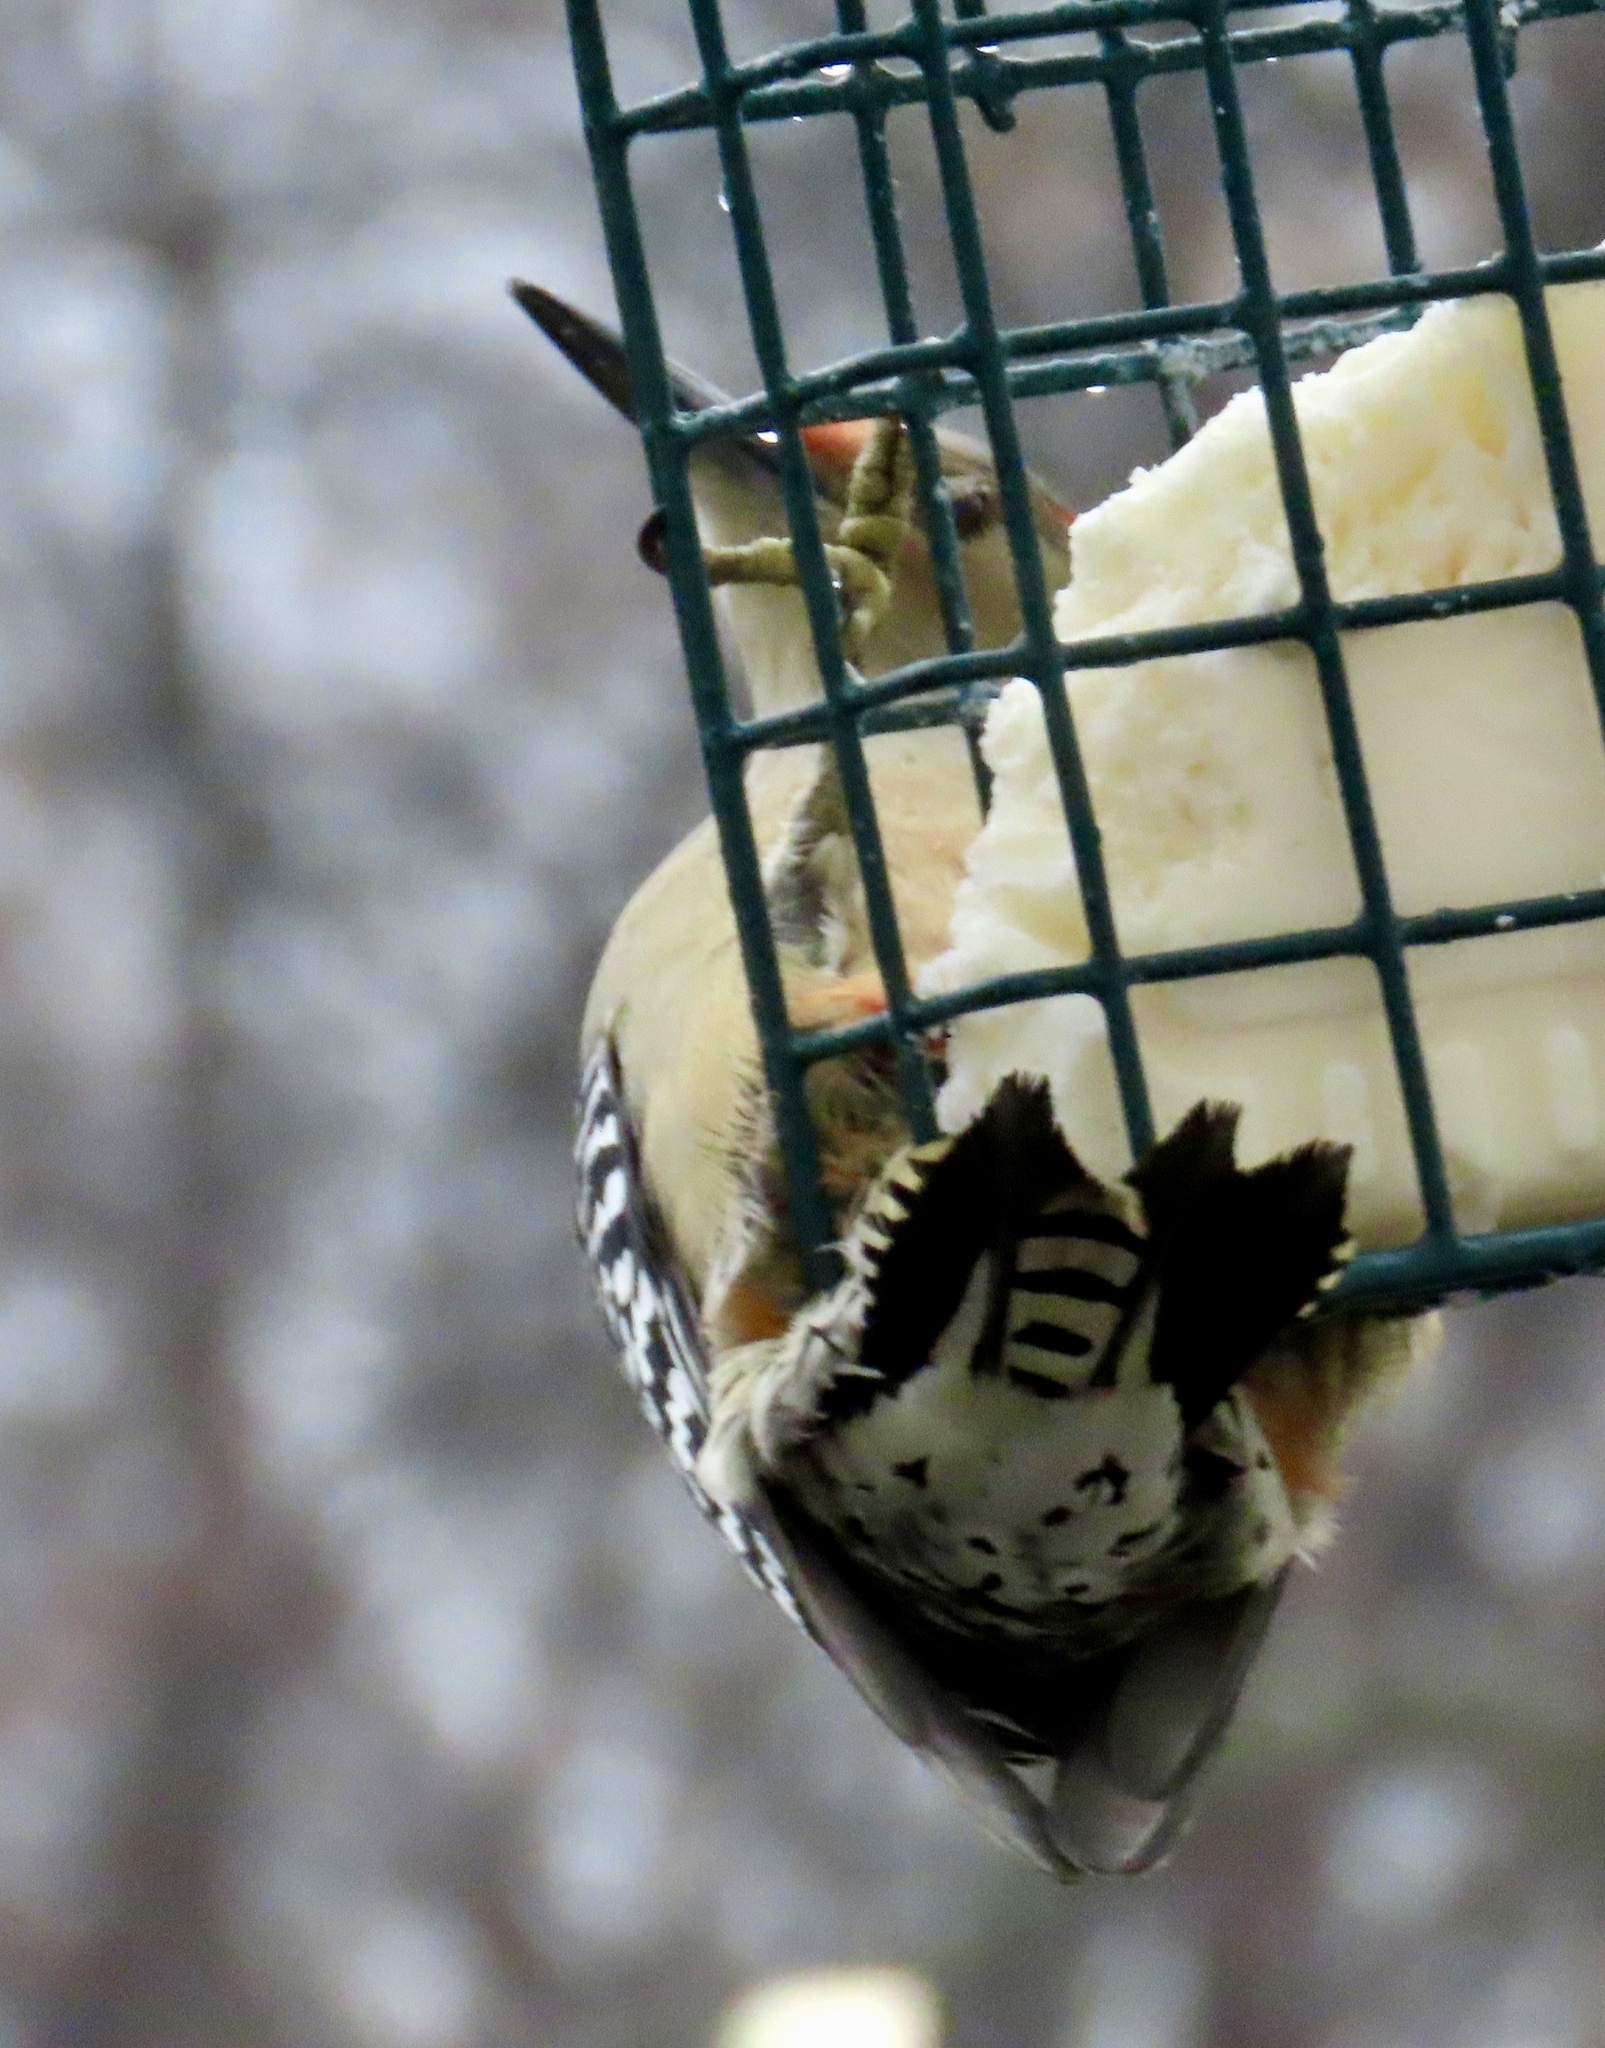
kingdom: Animalia
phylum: Chordata
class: Aves
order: Piciformes
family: Picidae
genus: Melanerpes
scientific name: Melanerpes carolinus
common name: Red-bellied woodpecker
